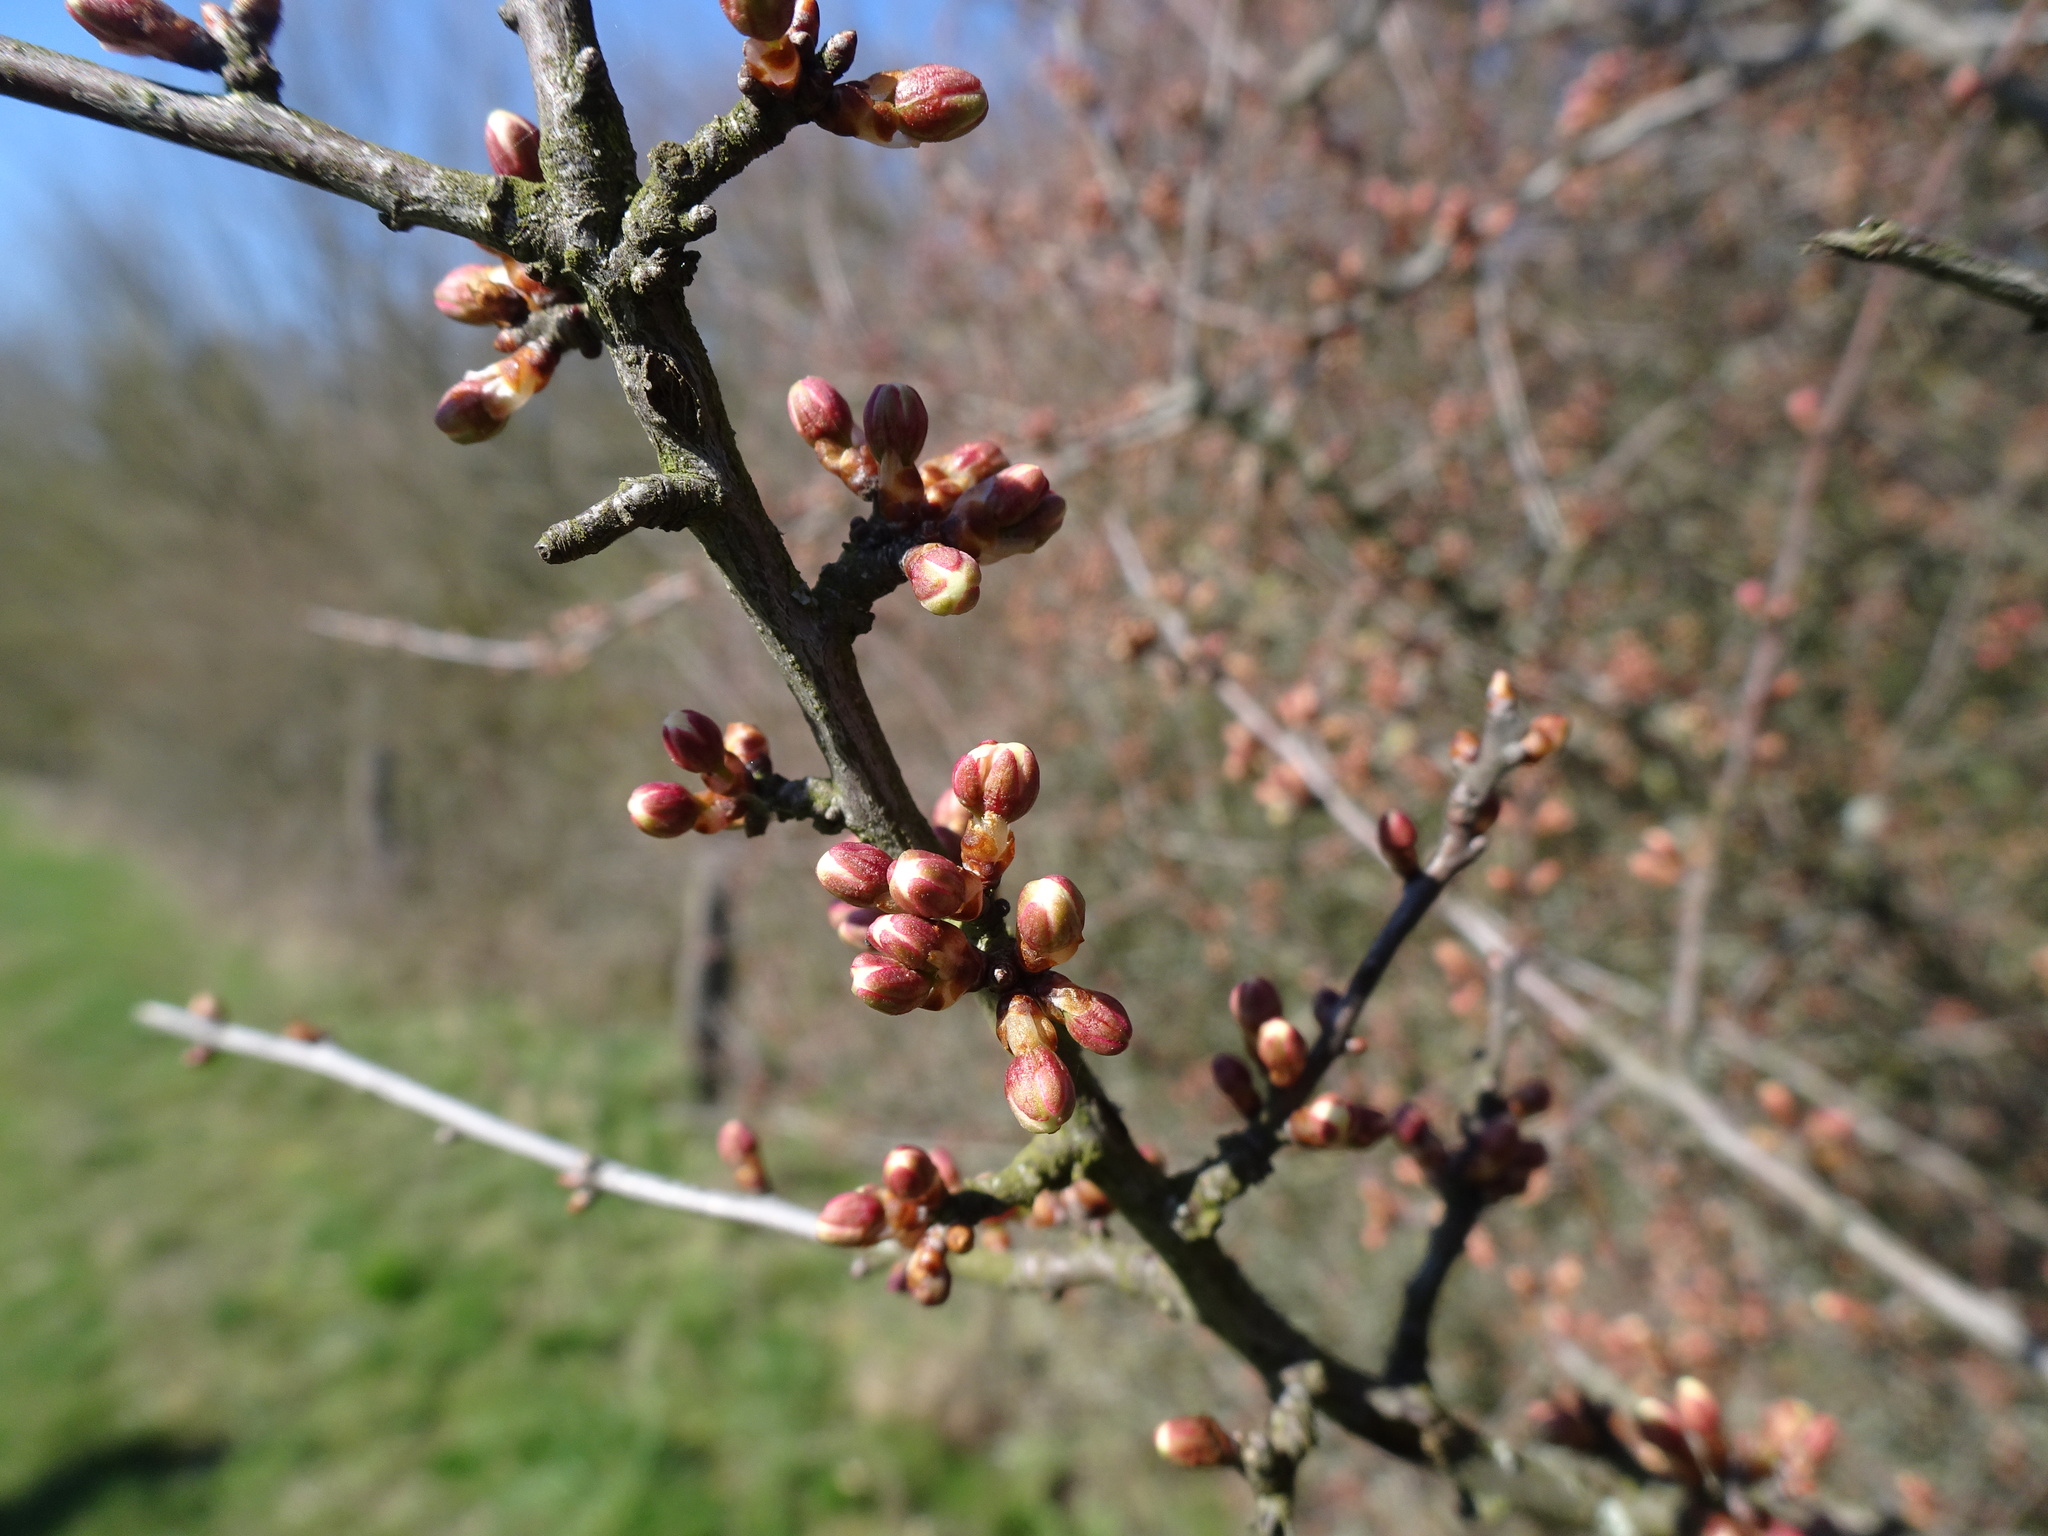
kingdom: Plantae
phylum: Tracheophyta
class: Magnoliopsida
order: Rosales
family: Rosaceae
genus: Prunus
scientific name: Prunus spinosa
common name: Blackthorn
